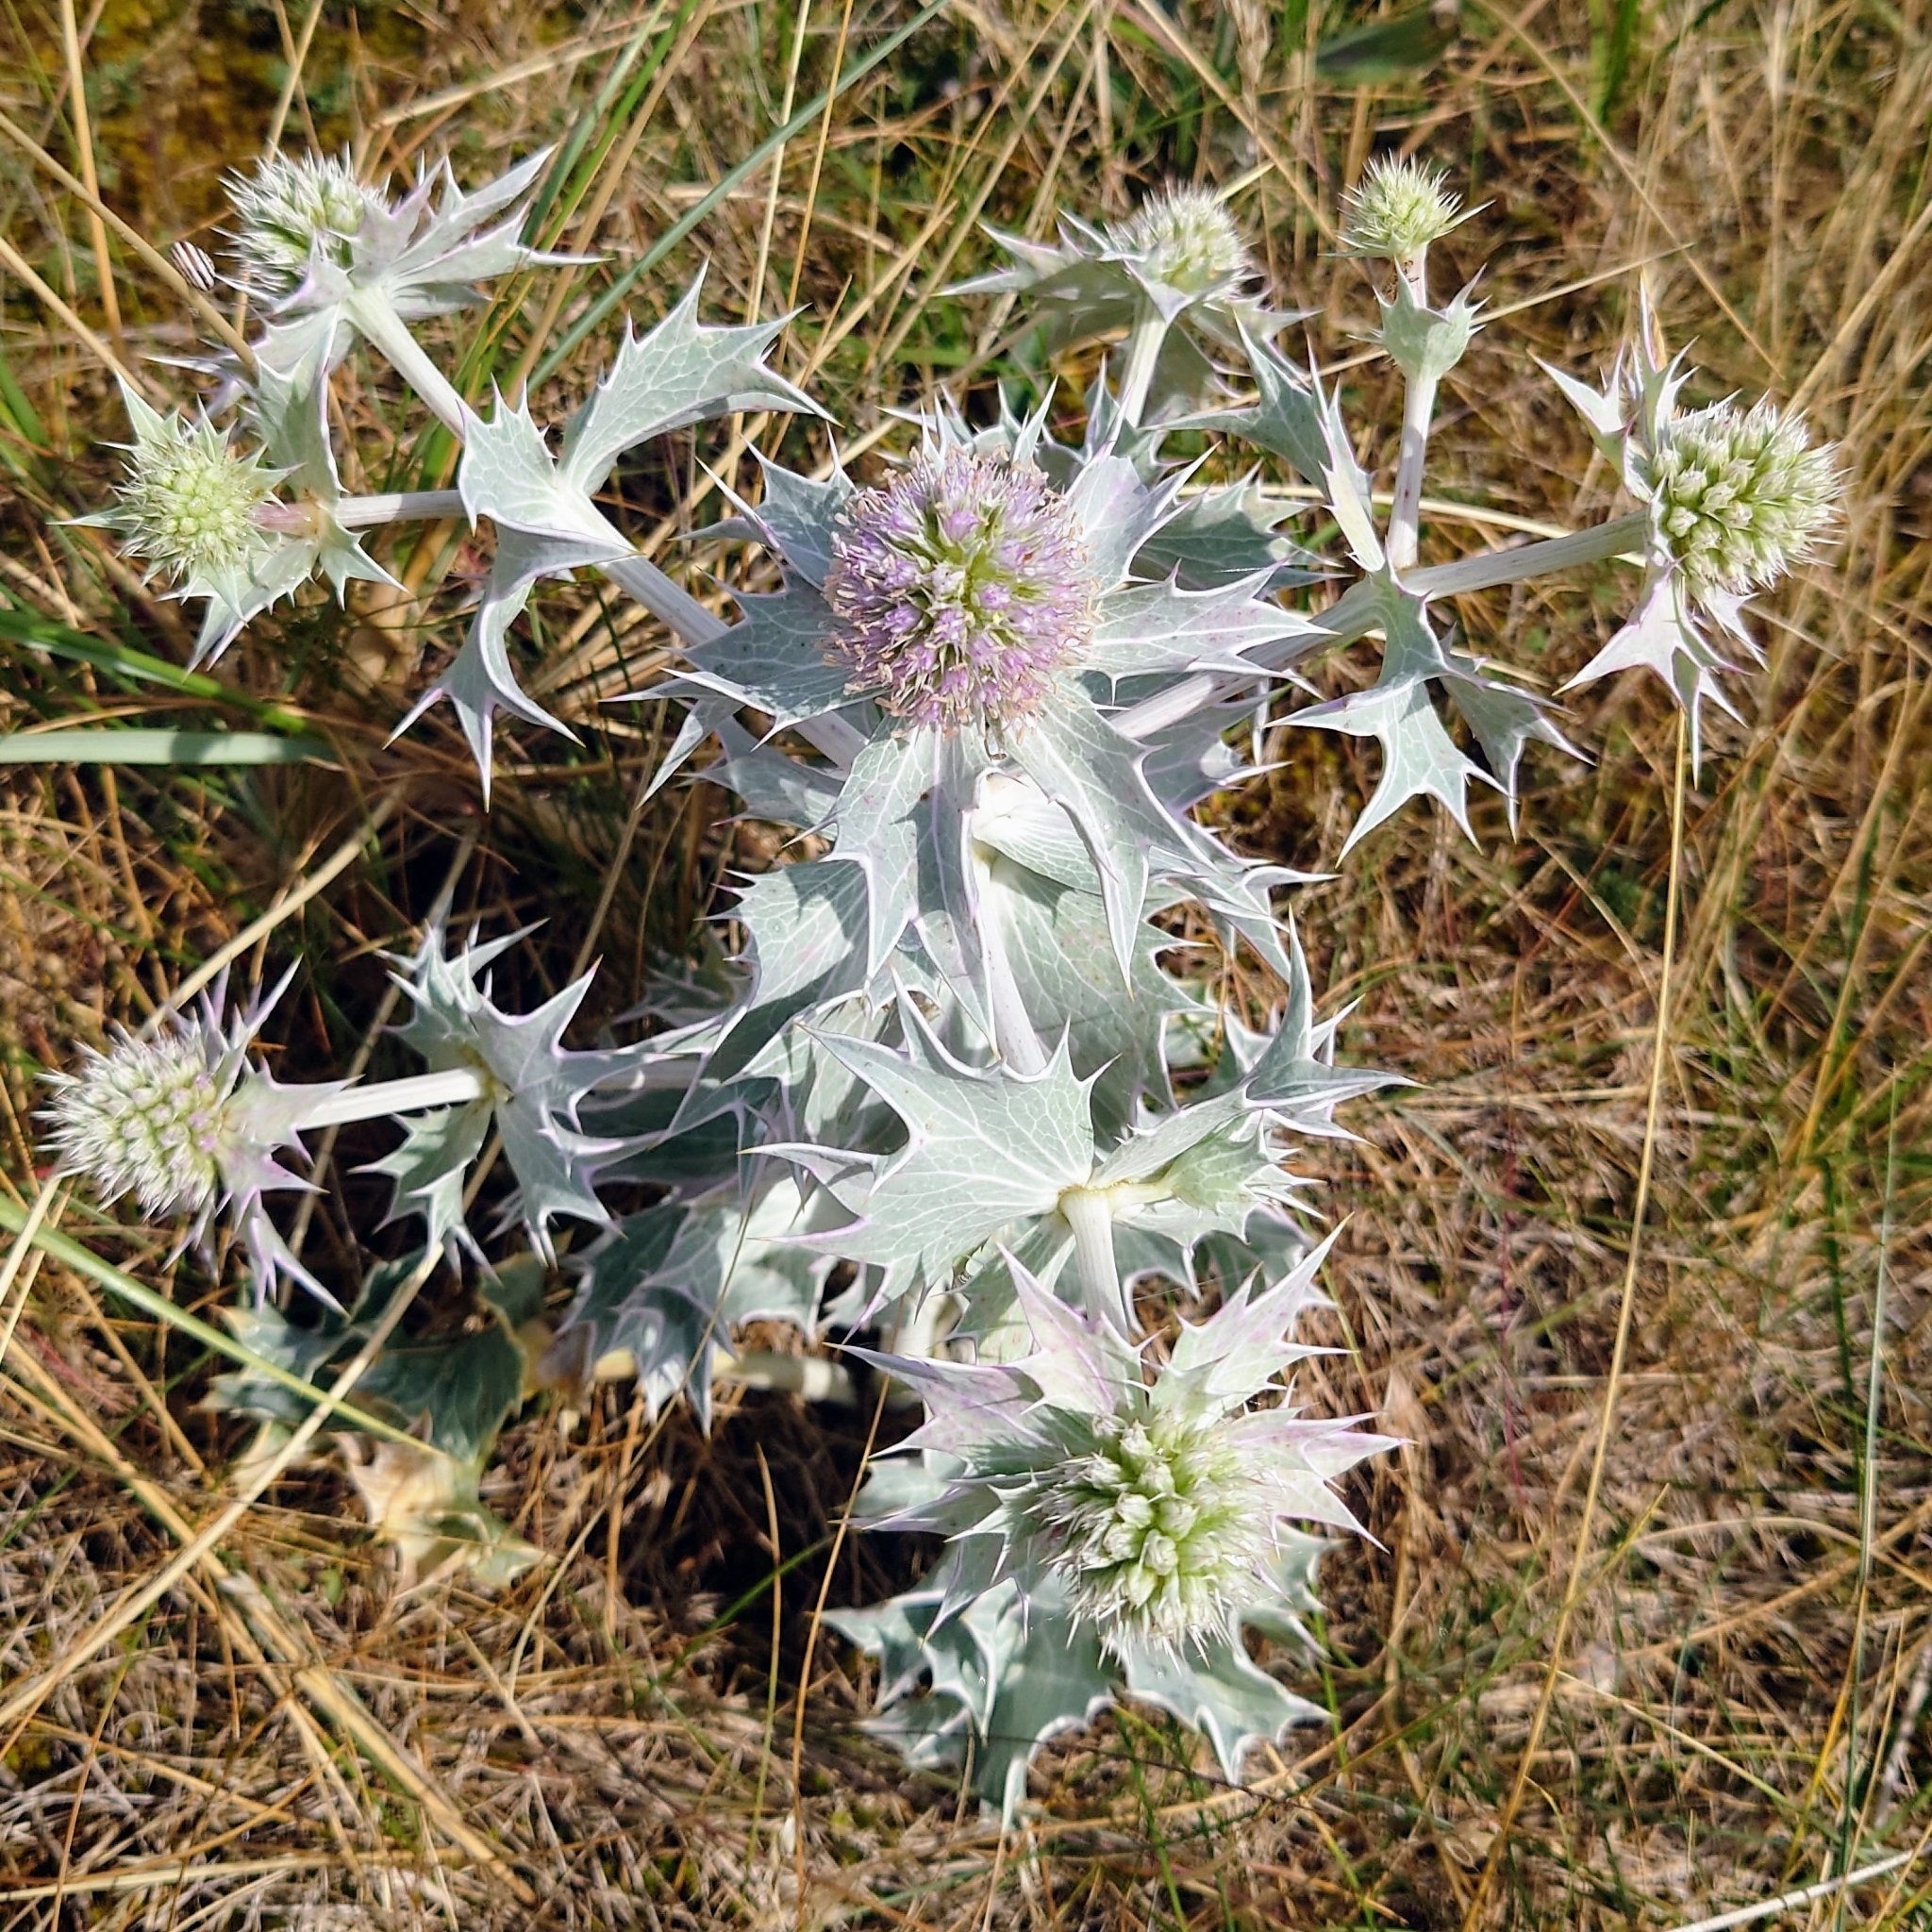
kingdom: Plantae
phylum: Tracheophyta
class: Magnoliopsida
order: Apiales
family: Apiaceae
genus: Eryngium
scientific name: Eryngium maritimum
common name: Sea-holly
